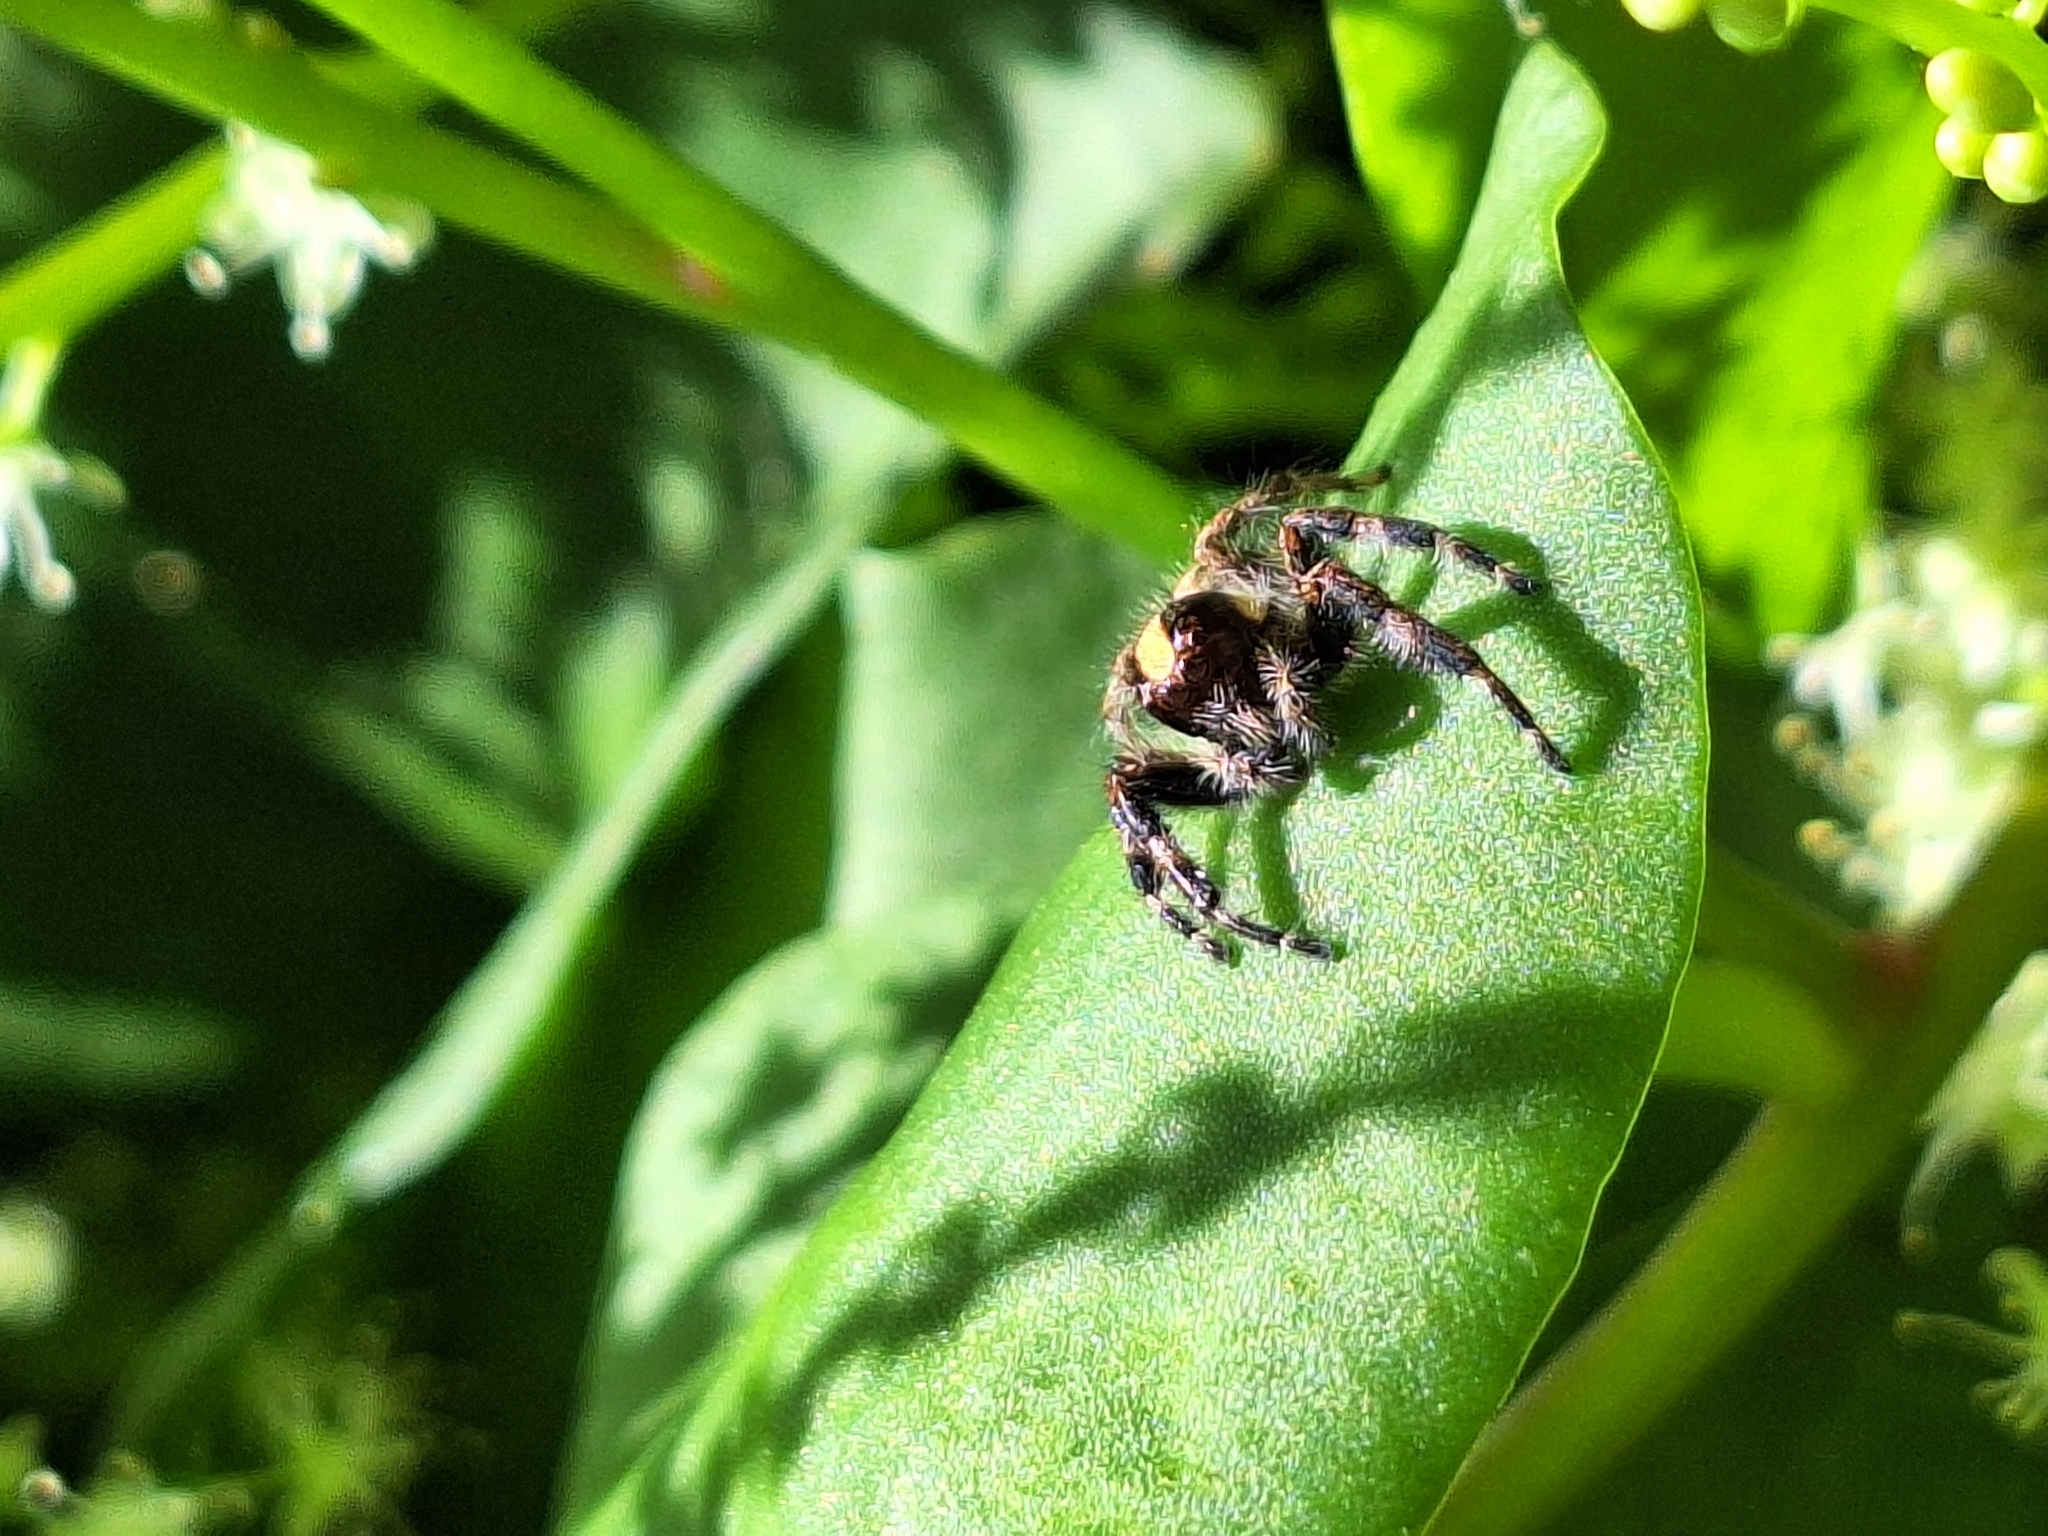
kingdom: Animalia
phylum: Arthropoda
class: Arachnida
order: Araneae
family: Salticidae
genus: Megafreya
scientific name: Megafreya sutrix
